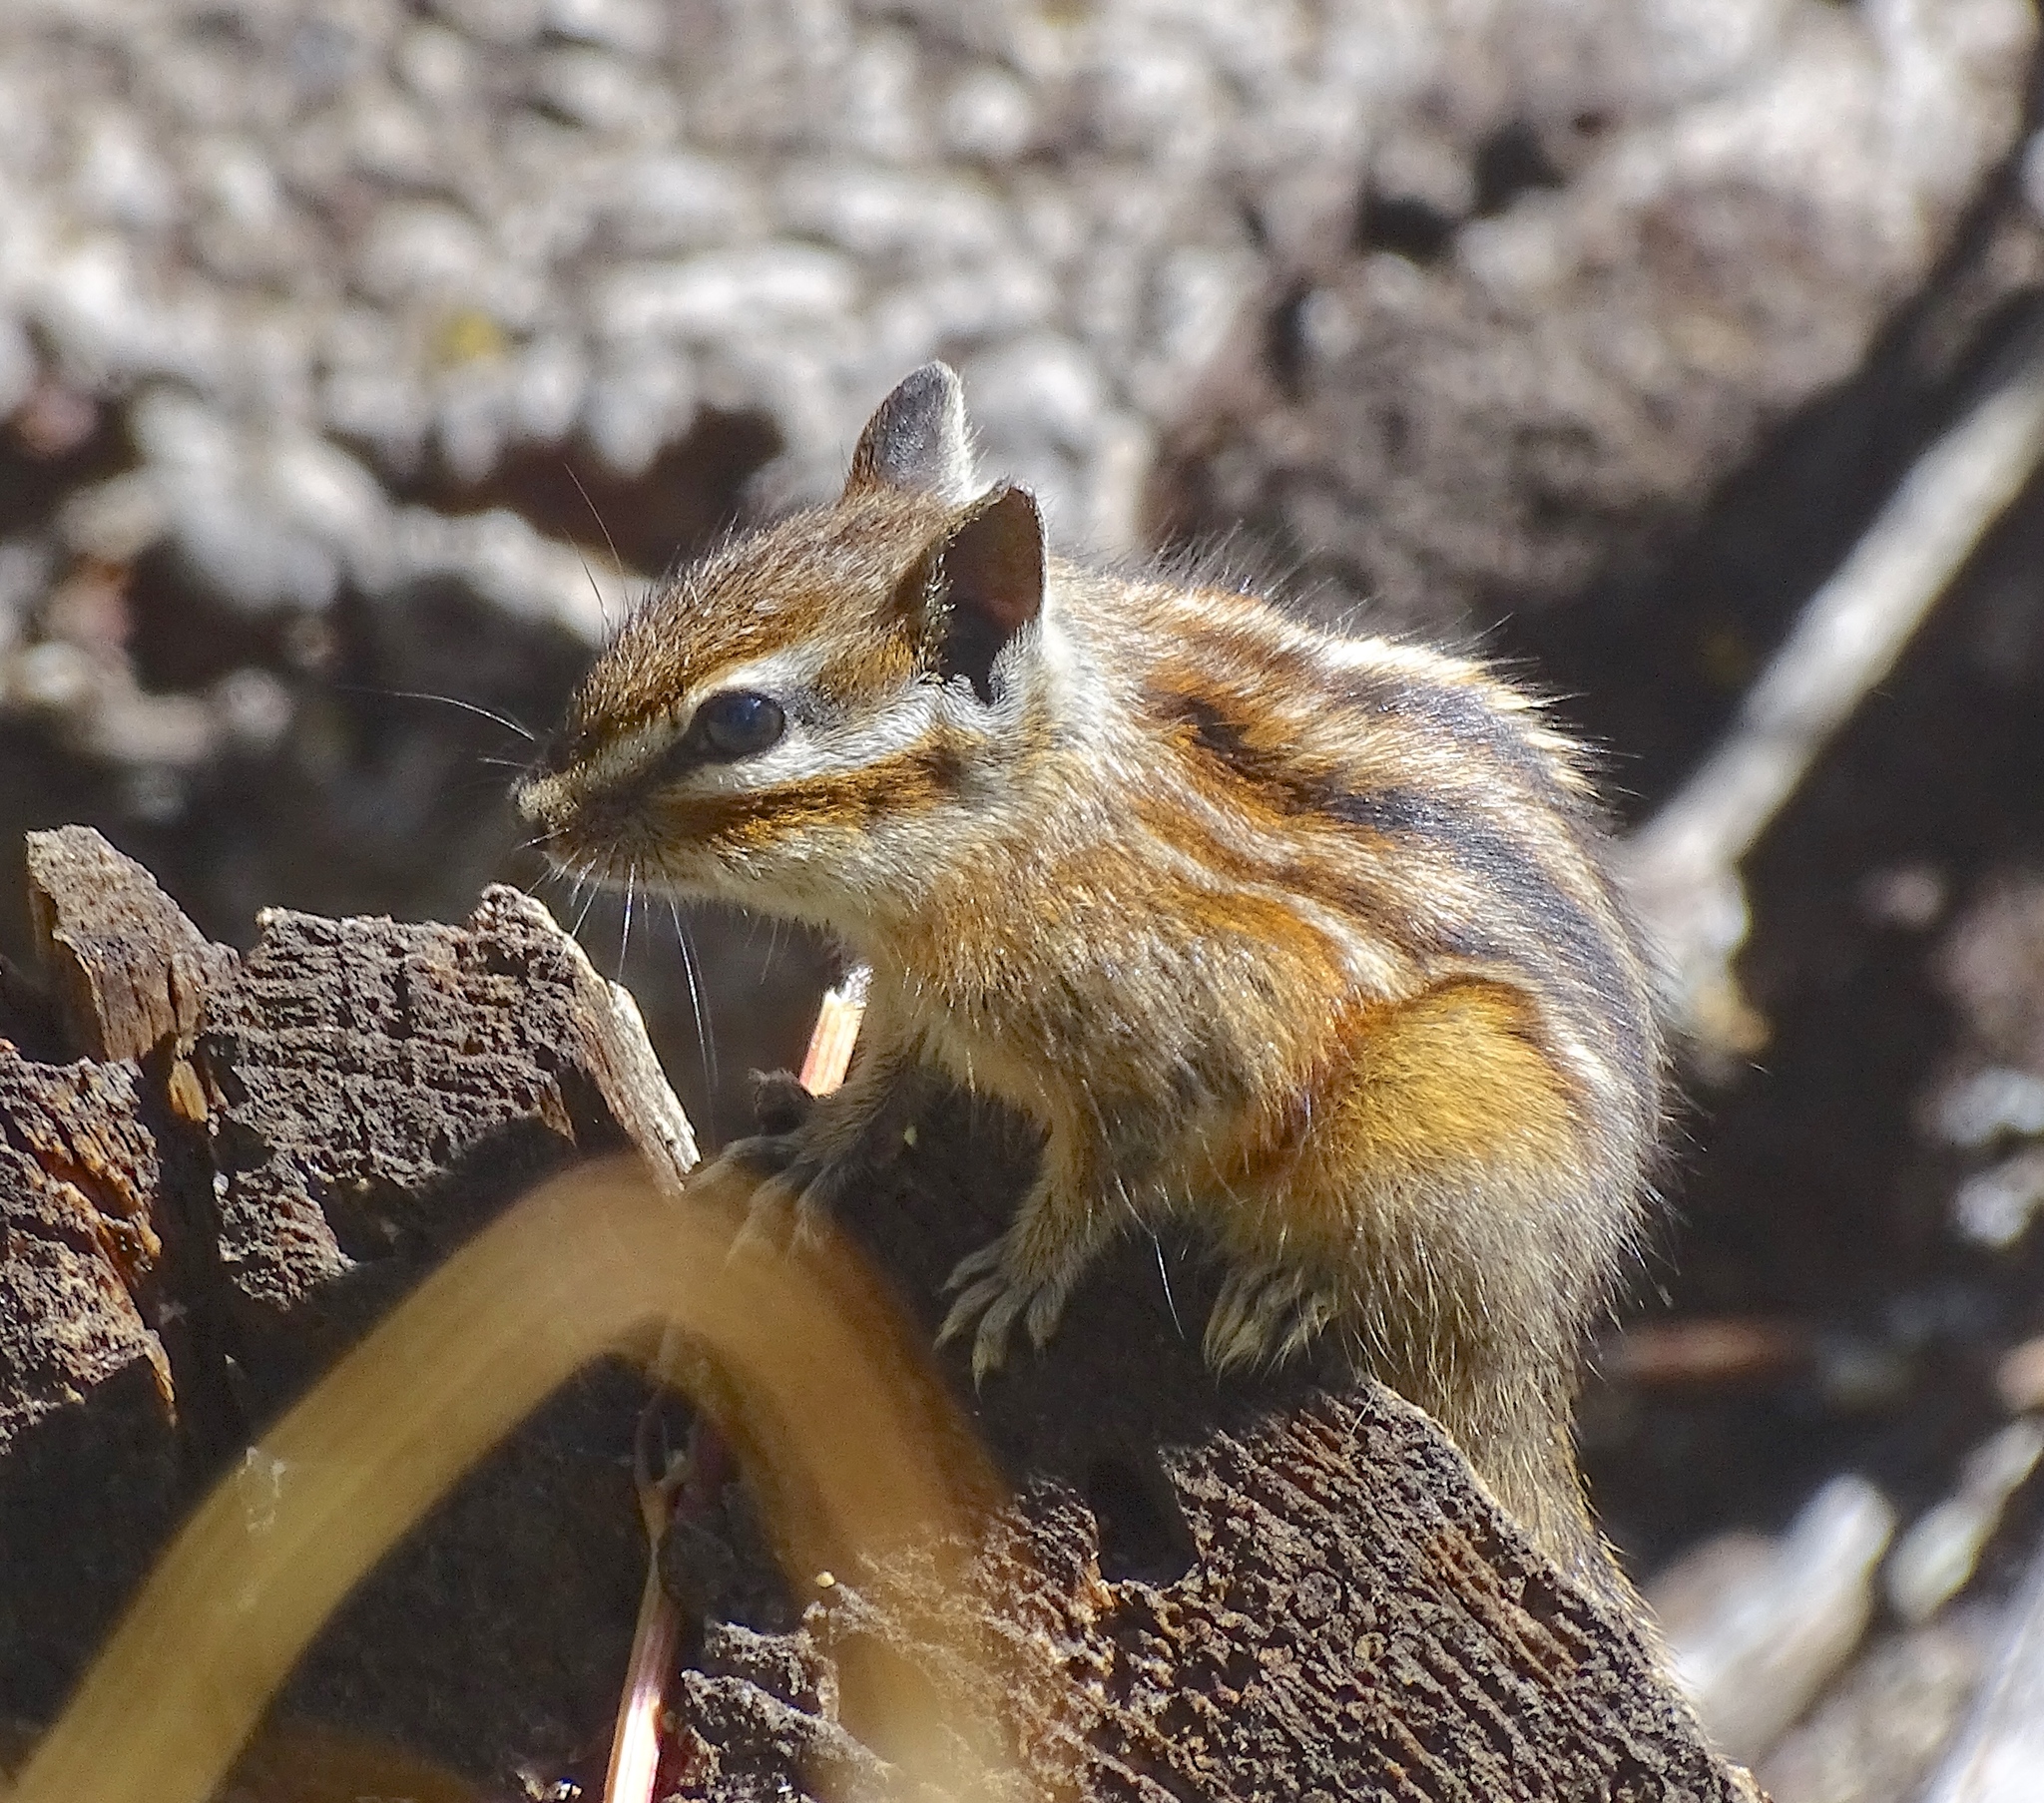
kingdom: Animalia
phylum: Chordata
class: Mammalia
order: Rodentia
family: Sciuridae
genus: Tamias
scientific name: Tamias quadrivittatus
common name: Colorado chipmunk
